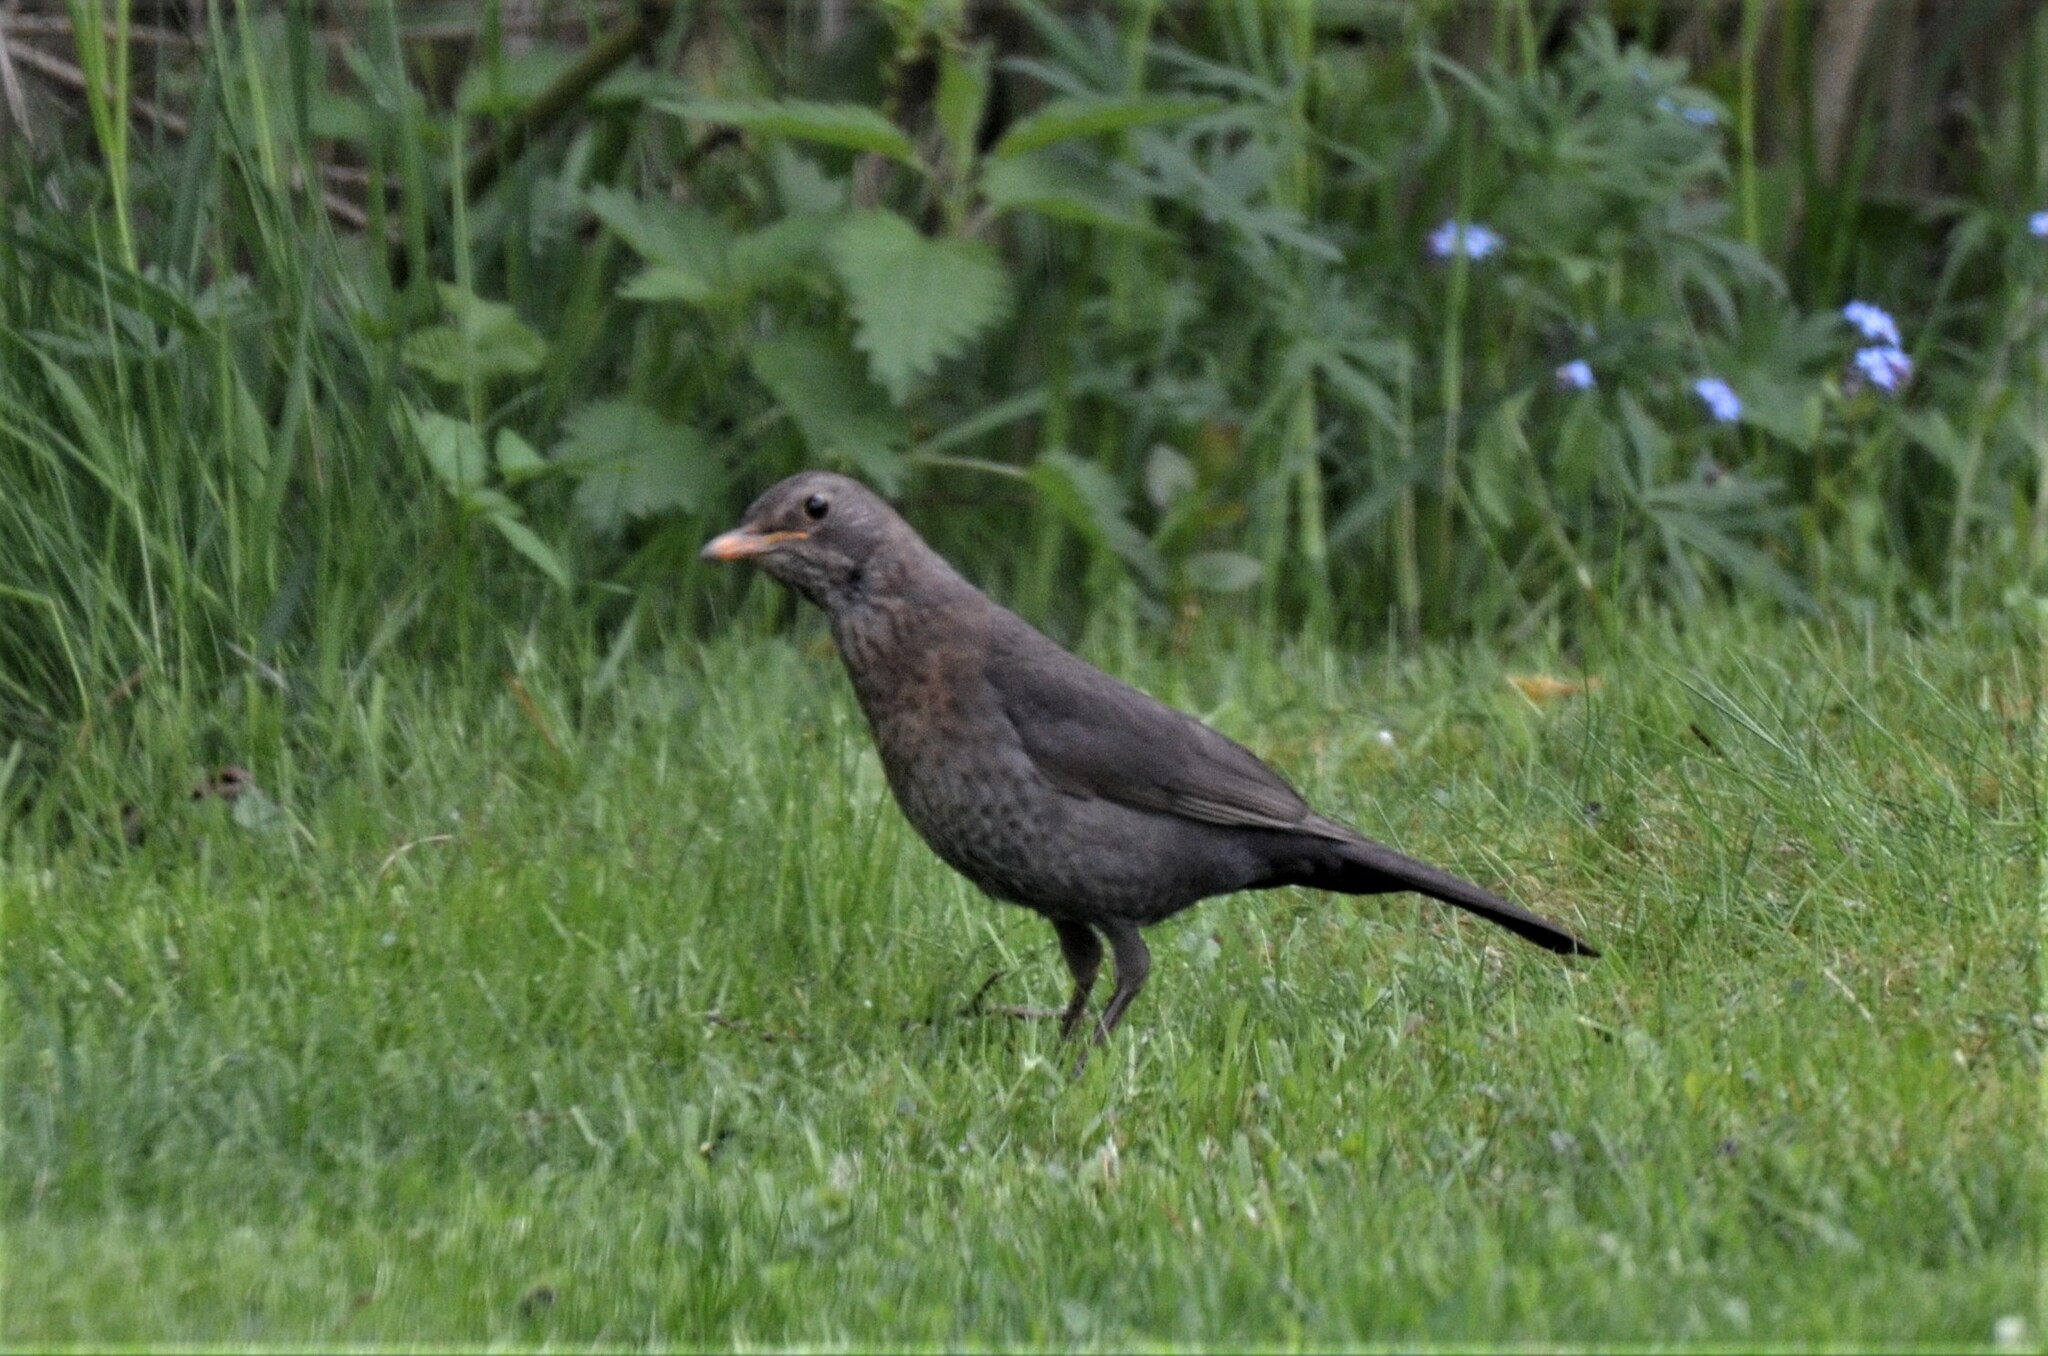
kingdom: Animalia
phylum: Chordata
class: Aves
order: Passeriformes
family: Turdidae
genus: Turdus
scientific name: Turdus merula
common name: Common blackbird
